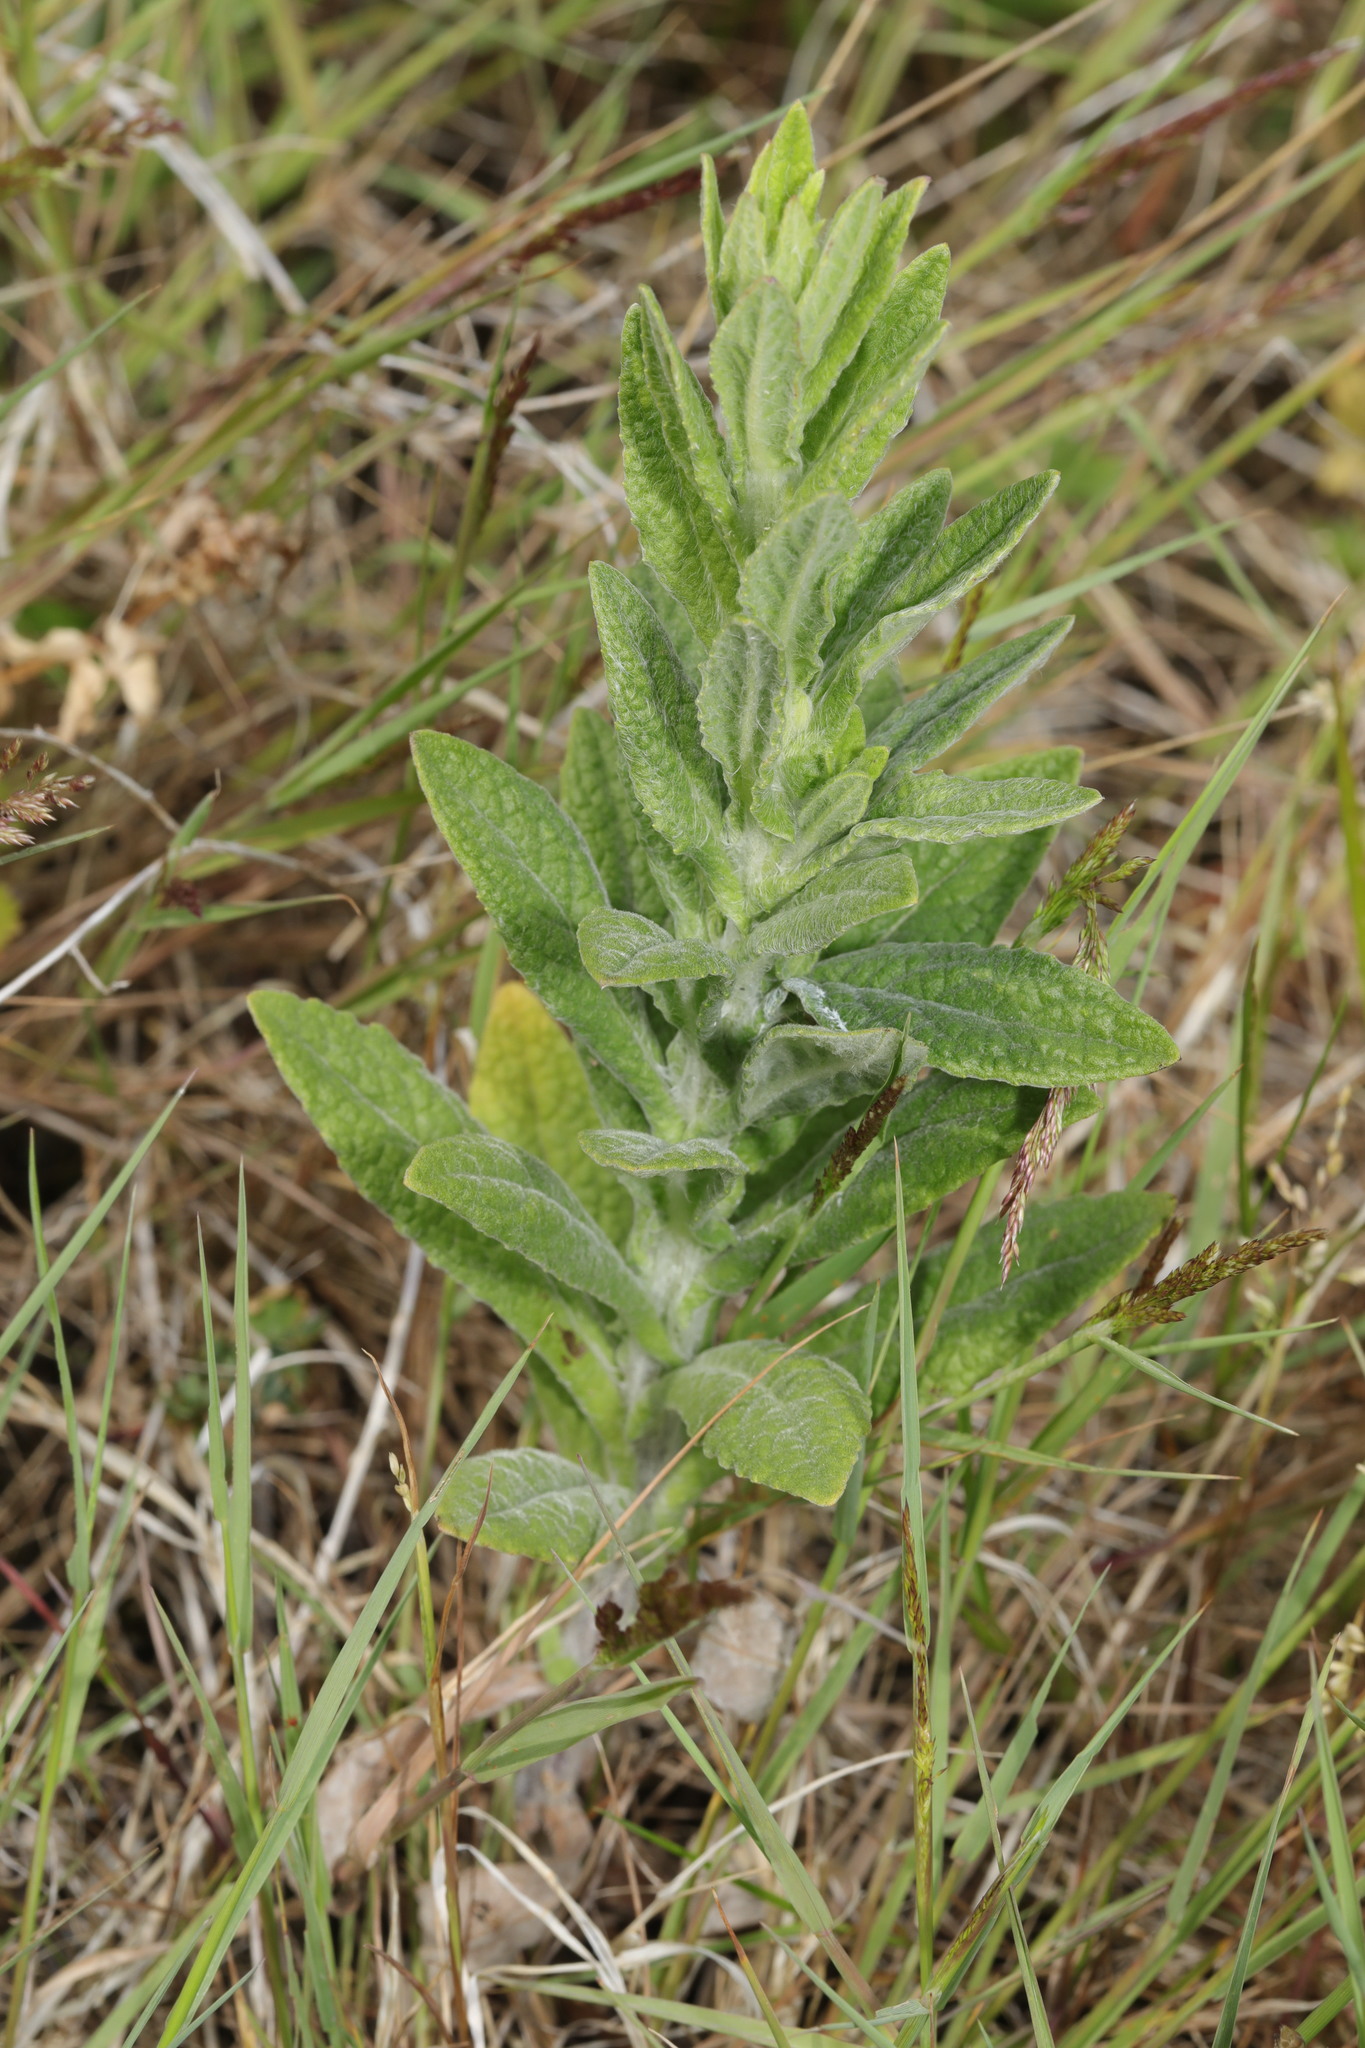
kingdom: Plantae
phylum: Tracheophyta
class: Magnoliopsida
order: Asterales
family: Asteraceae
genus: Pulicaria
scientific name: Pulicaria dysenterica
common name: Common fleabane
